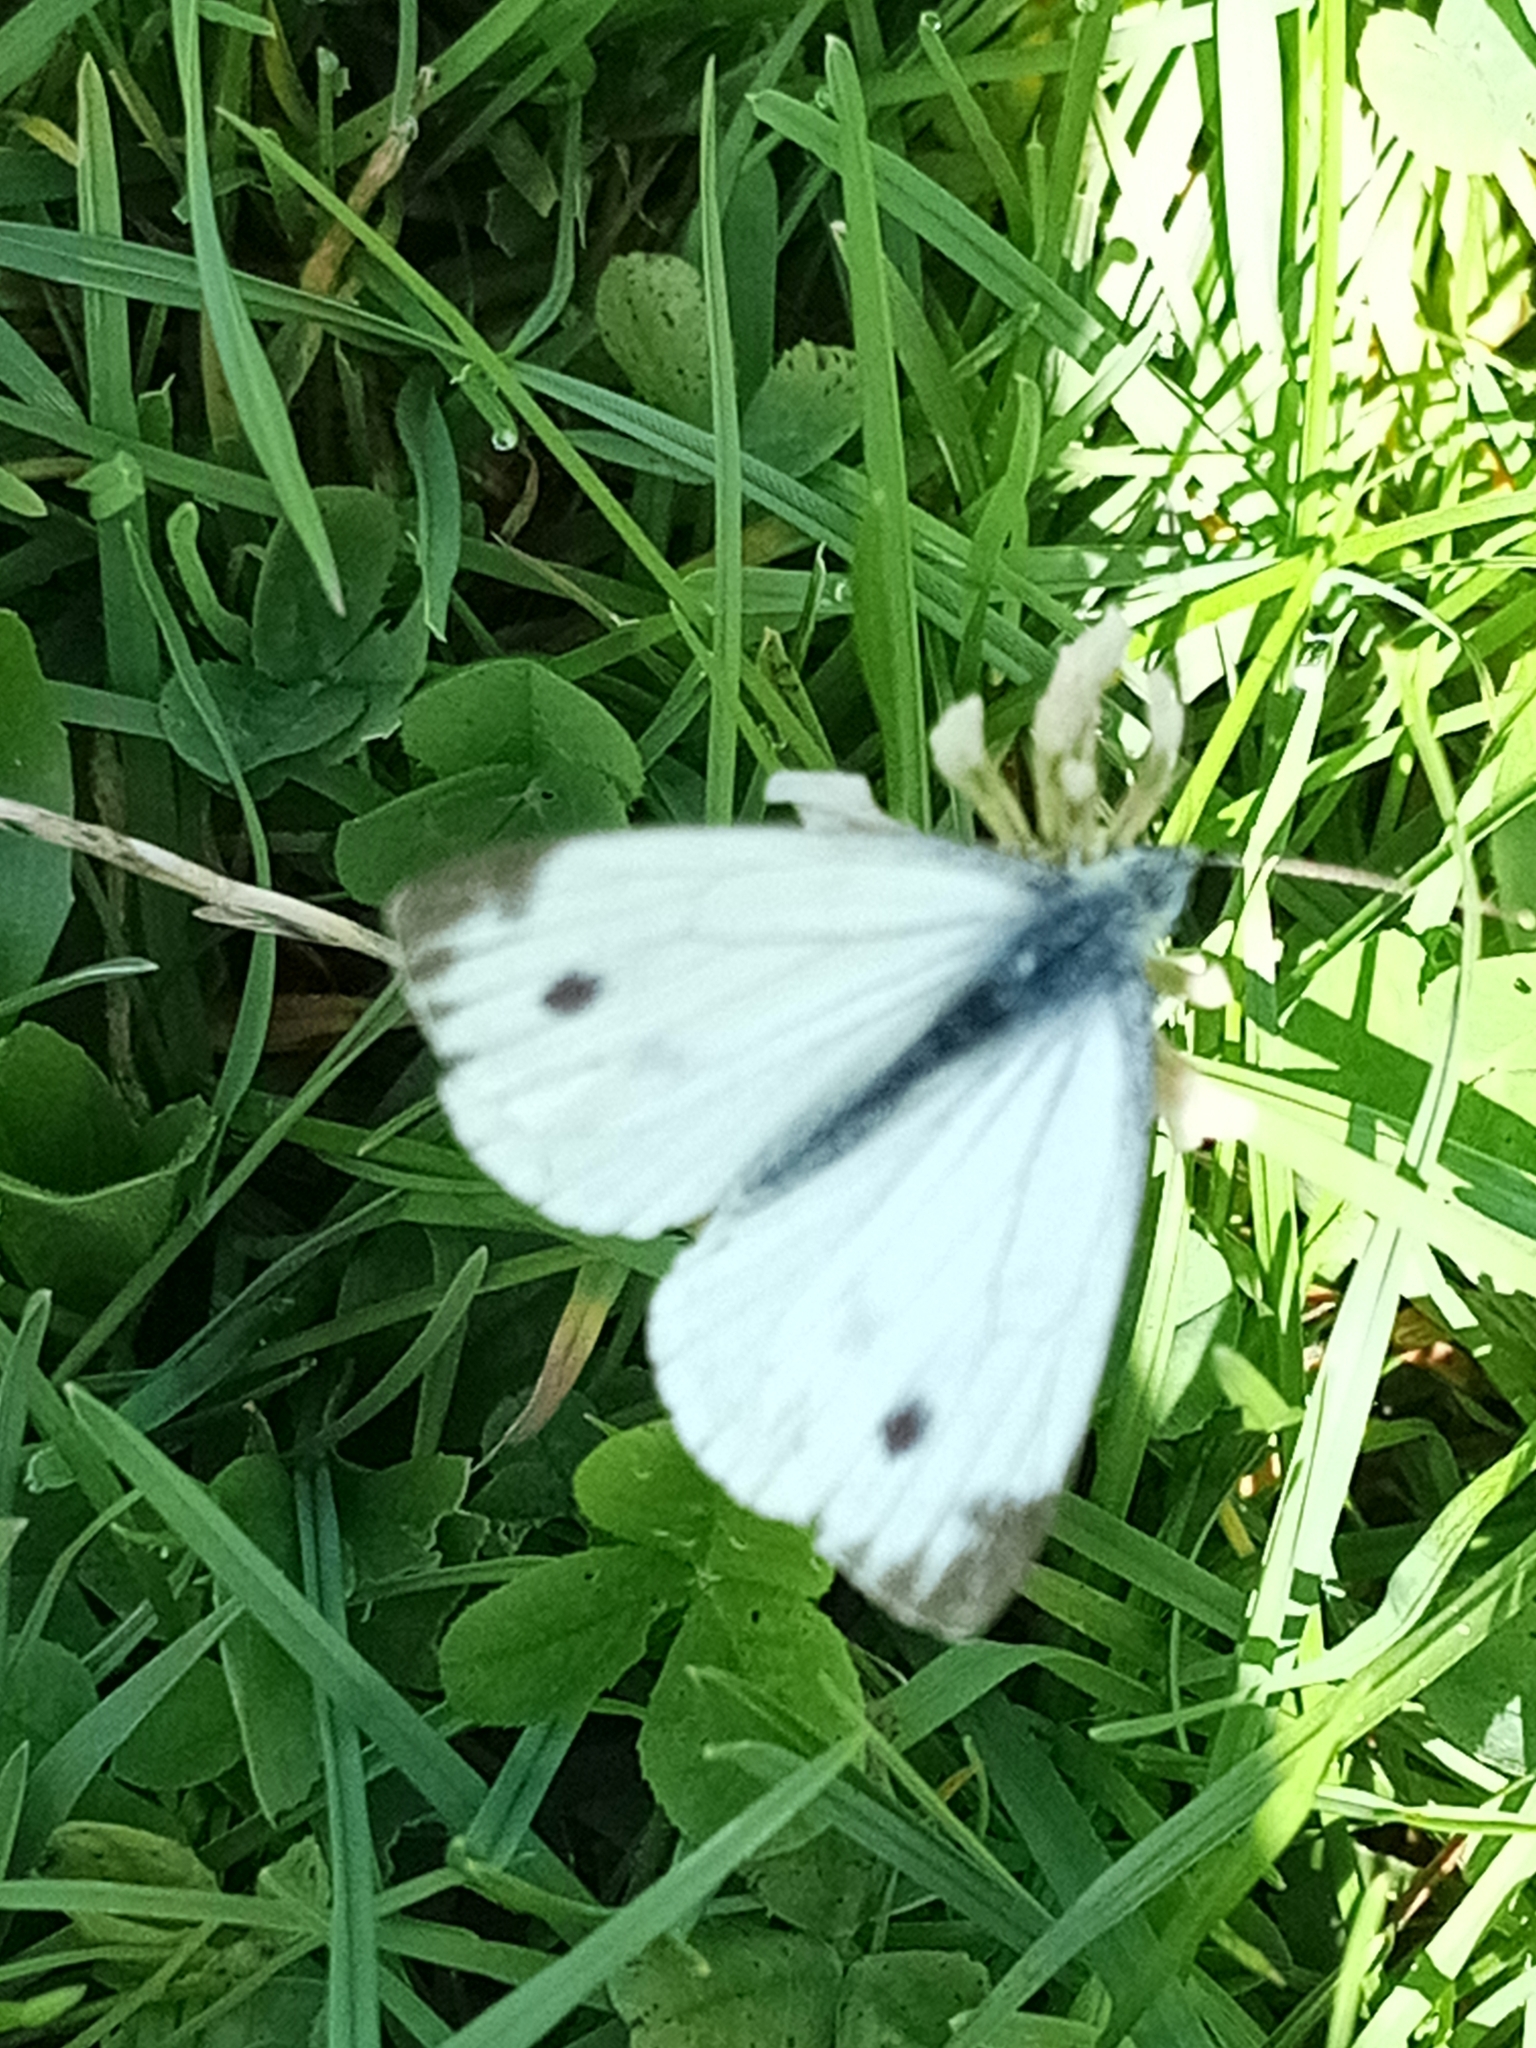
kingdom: Animalia
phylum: Arthropoda
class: Insecta
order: Lepidoptera
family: Pieridae
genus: Pieris
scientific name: Pieris napi
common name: Green-veined white
